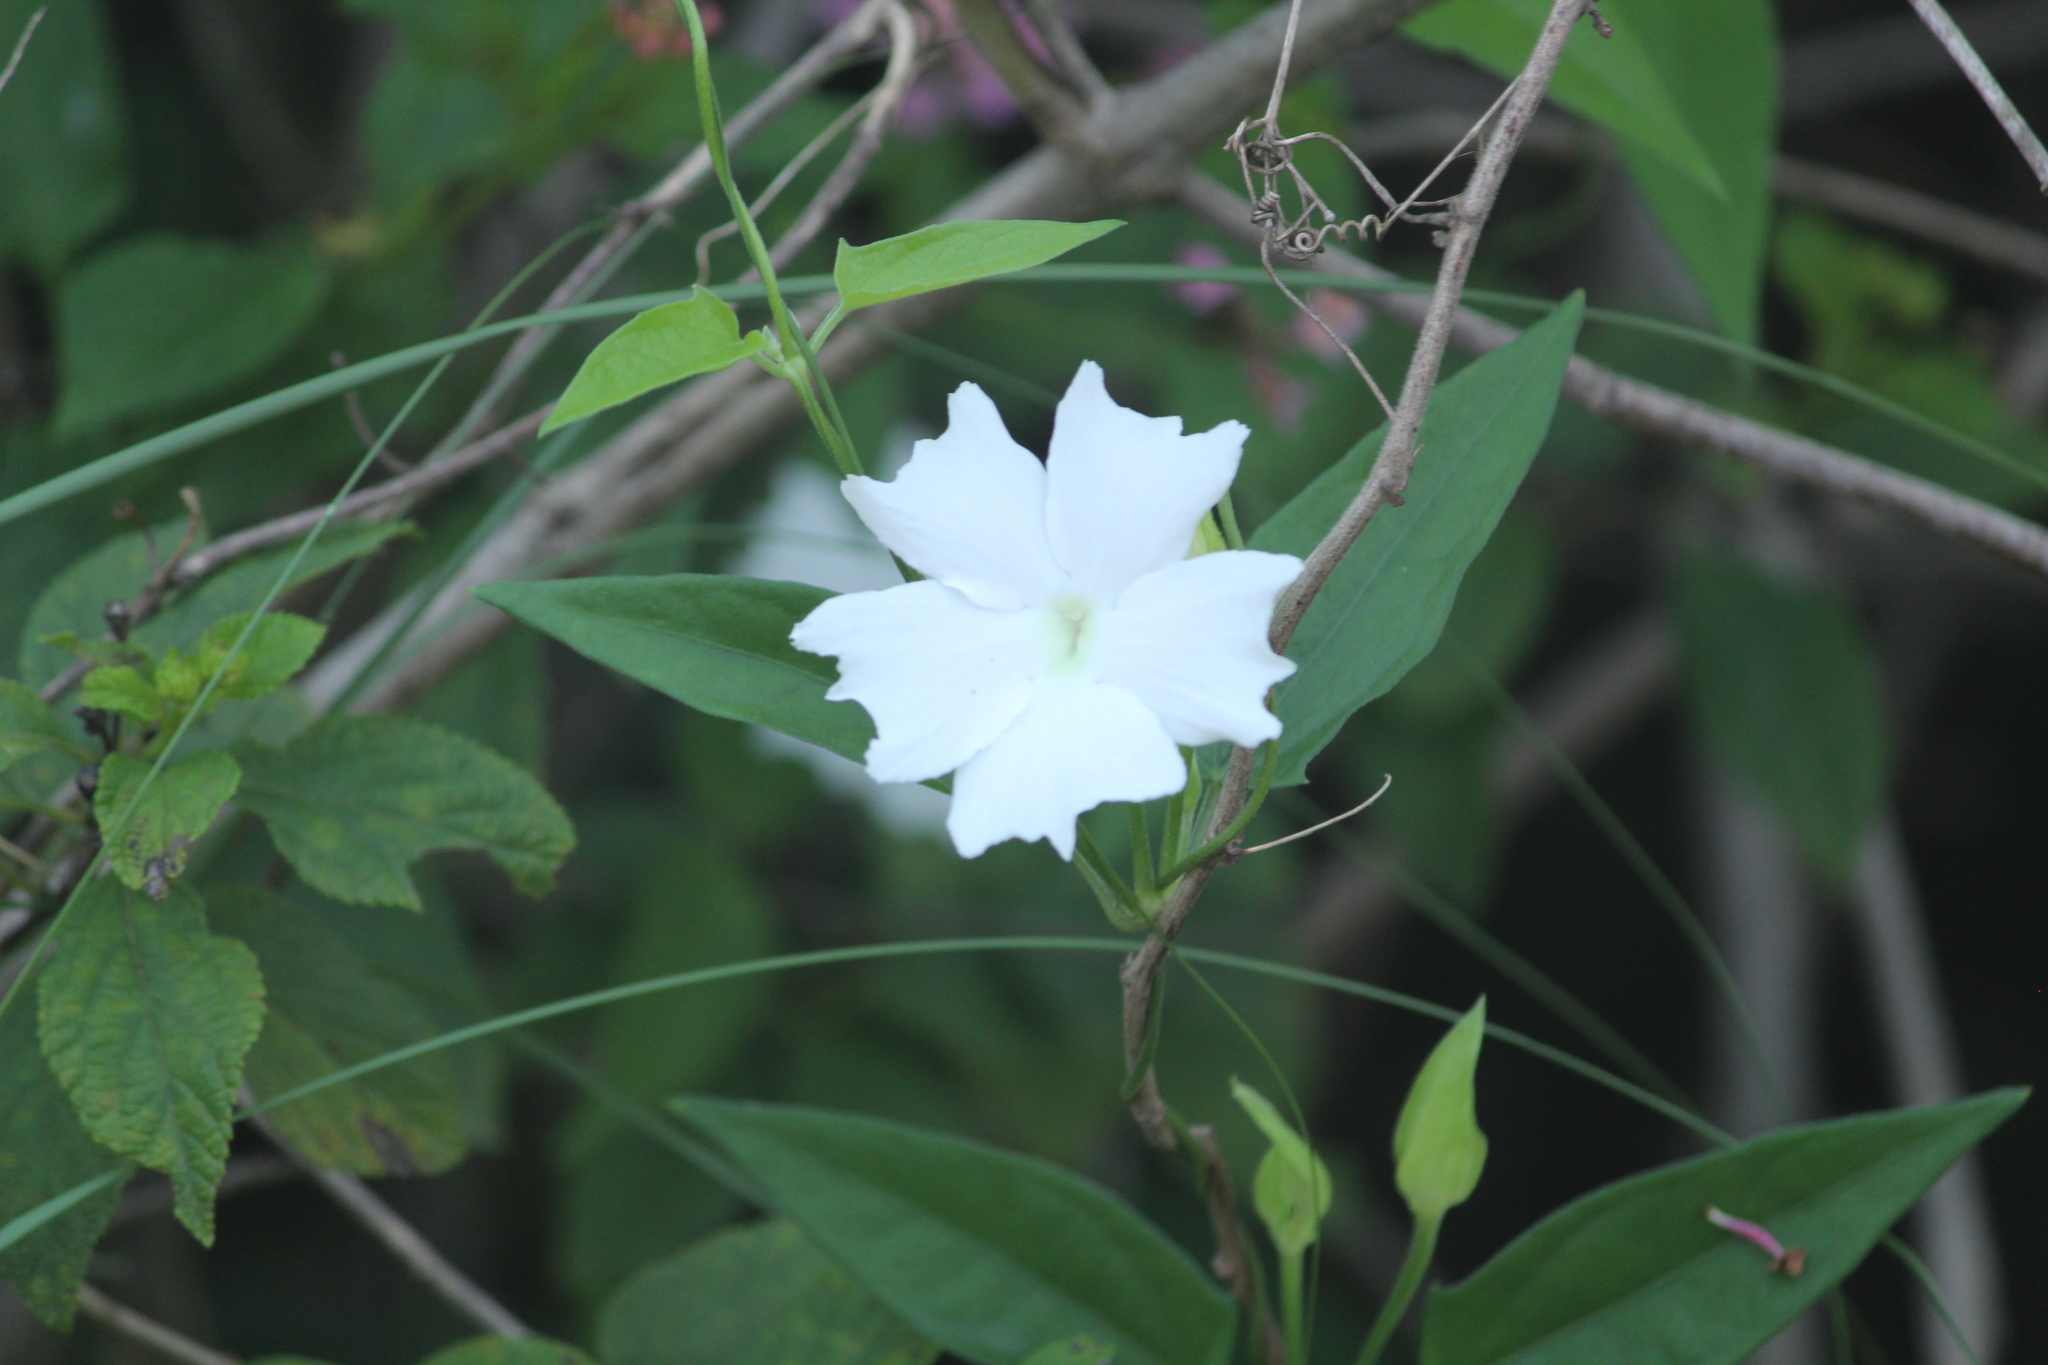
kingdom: Plantae
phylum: Tracheophyta
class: Magnoliopsida
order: Lamiales
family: Acanthaceae
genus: Thunbergia
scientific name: Thunbergia fragrans
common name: Whitelady
